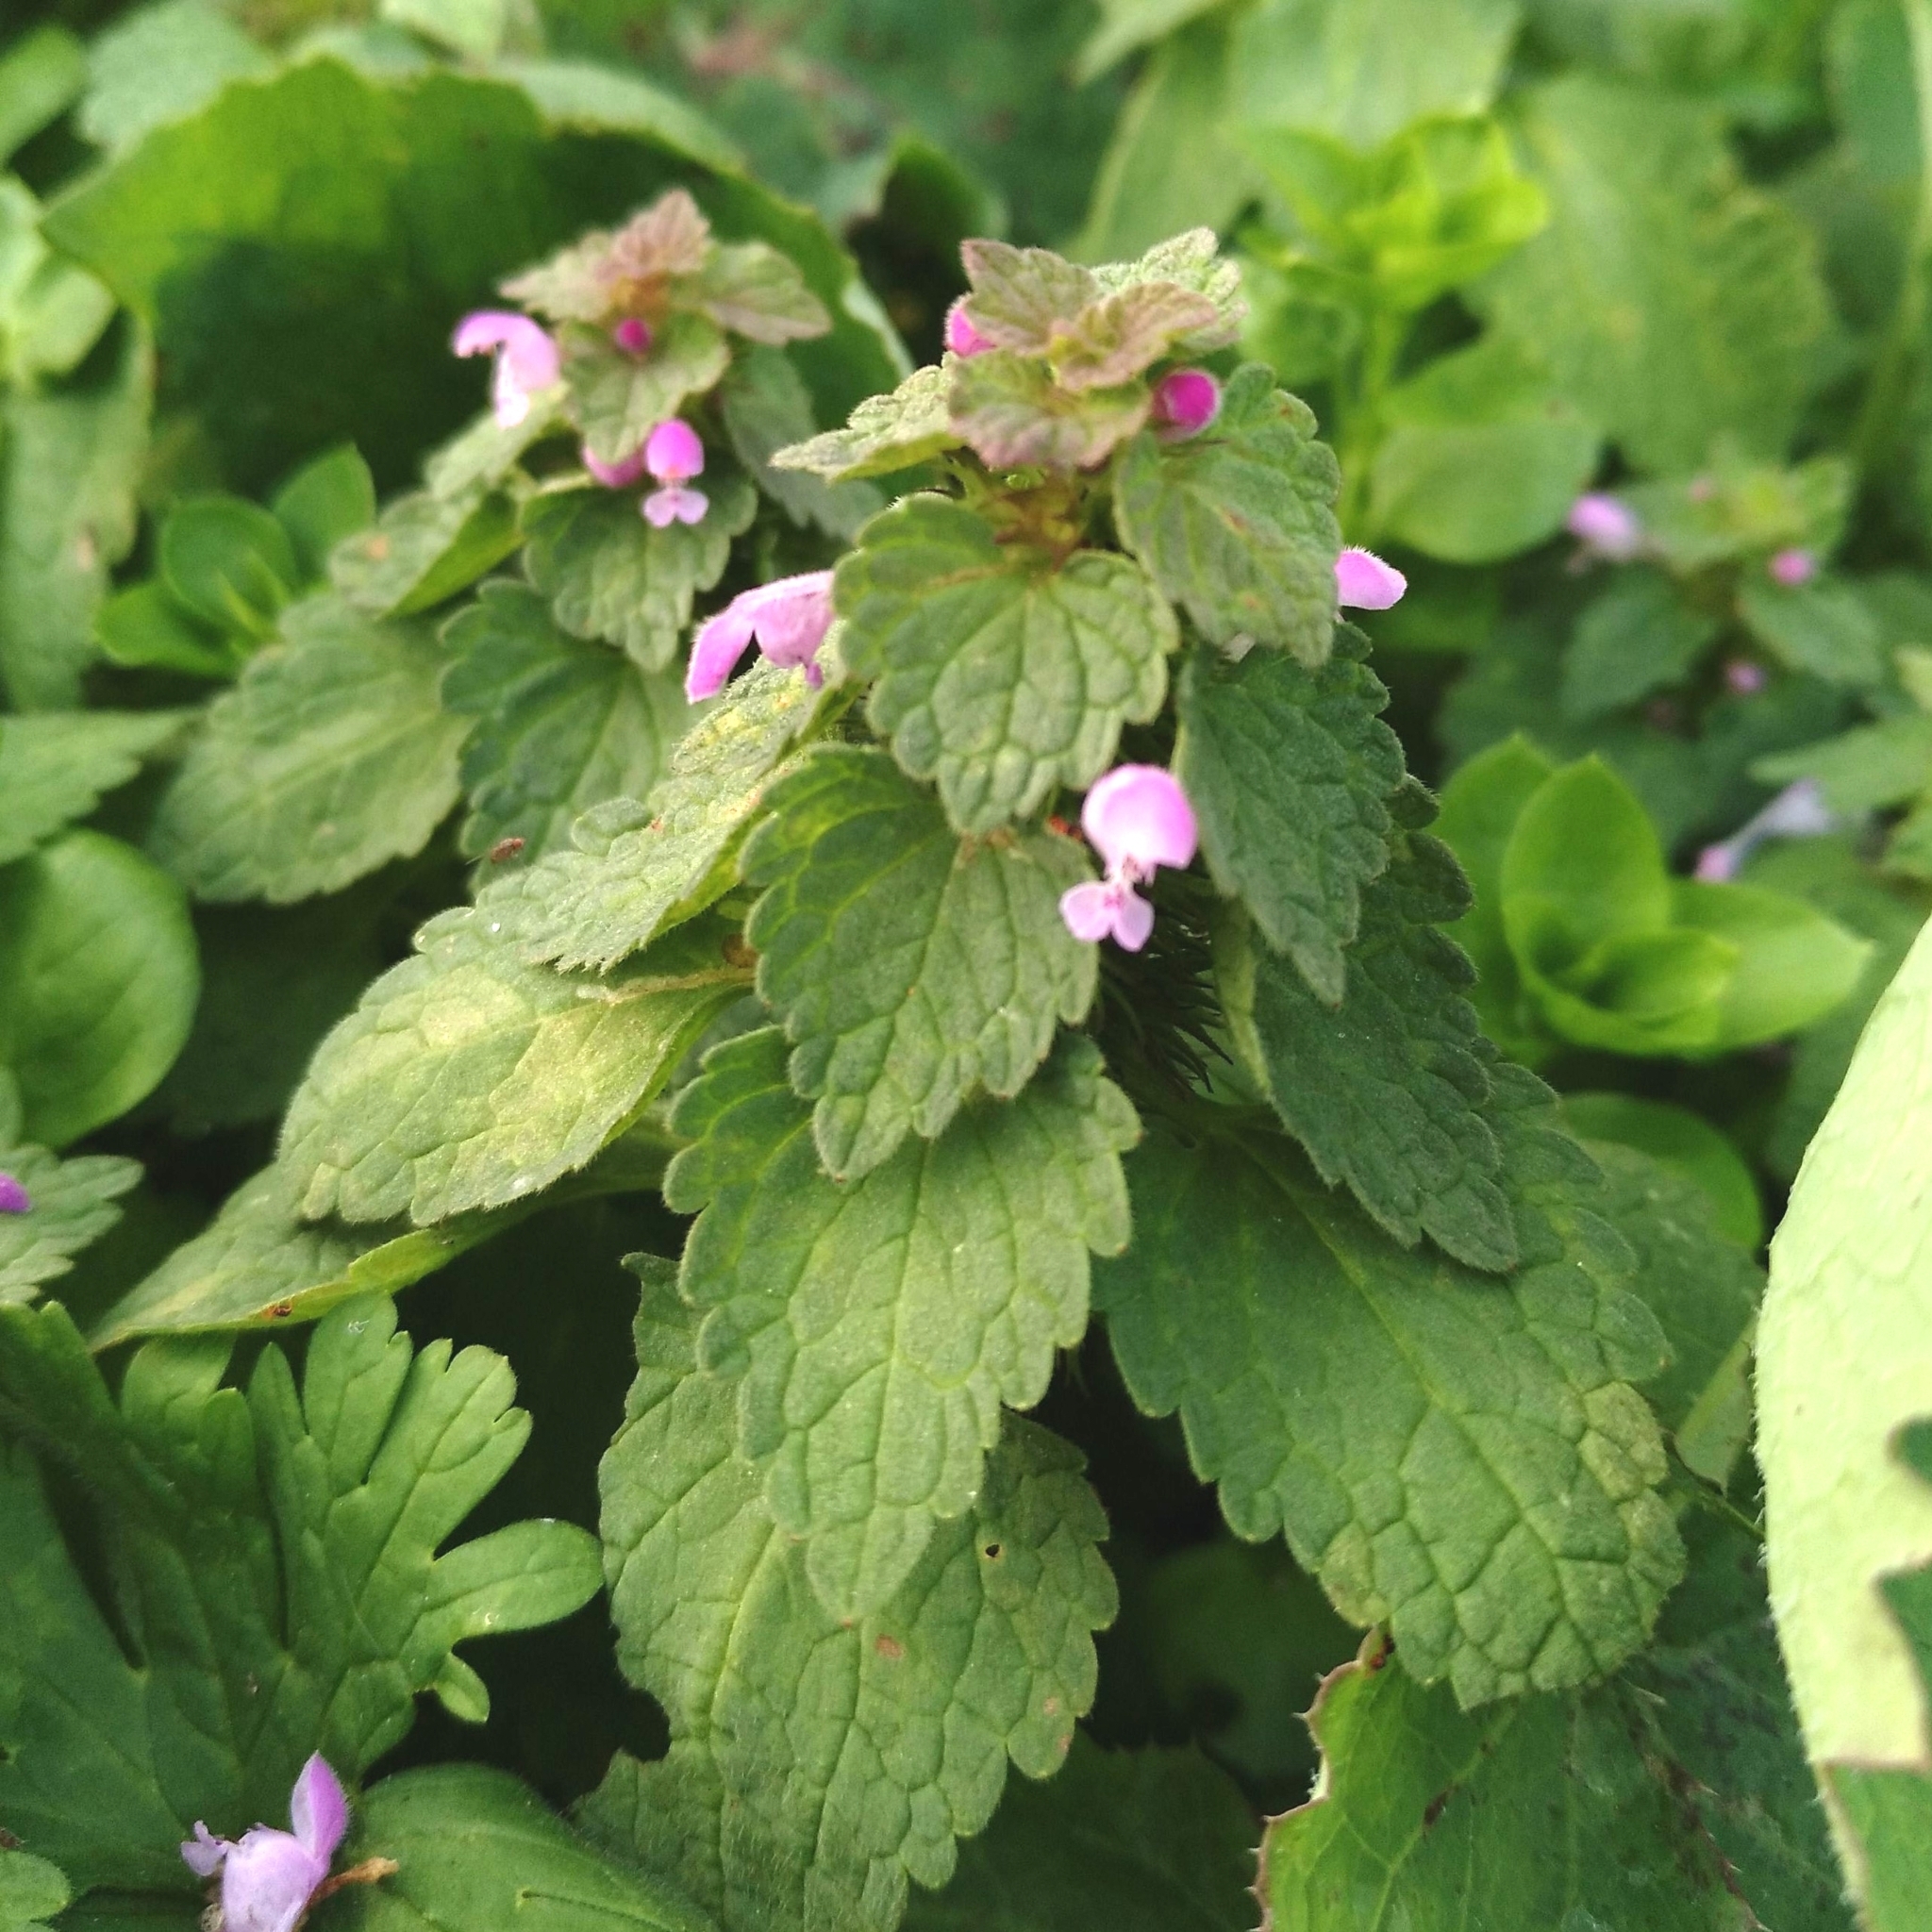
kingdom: Plantae
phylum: Tracheophyta
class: Magnoliopsida
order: Lamiales
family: Lamiaceae
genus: Lamium
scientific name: Lamium purpureum
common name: Red dead-nettle
